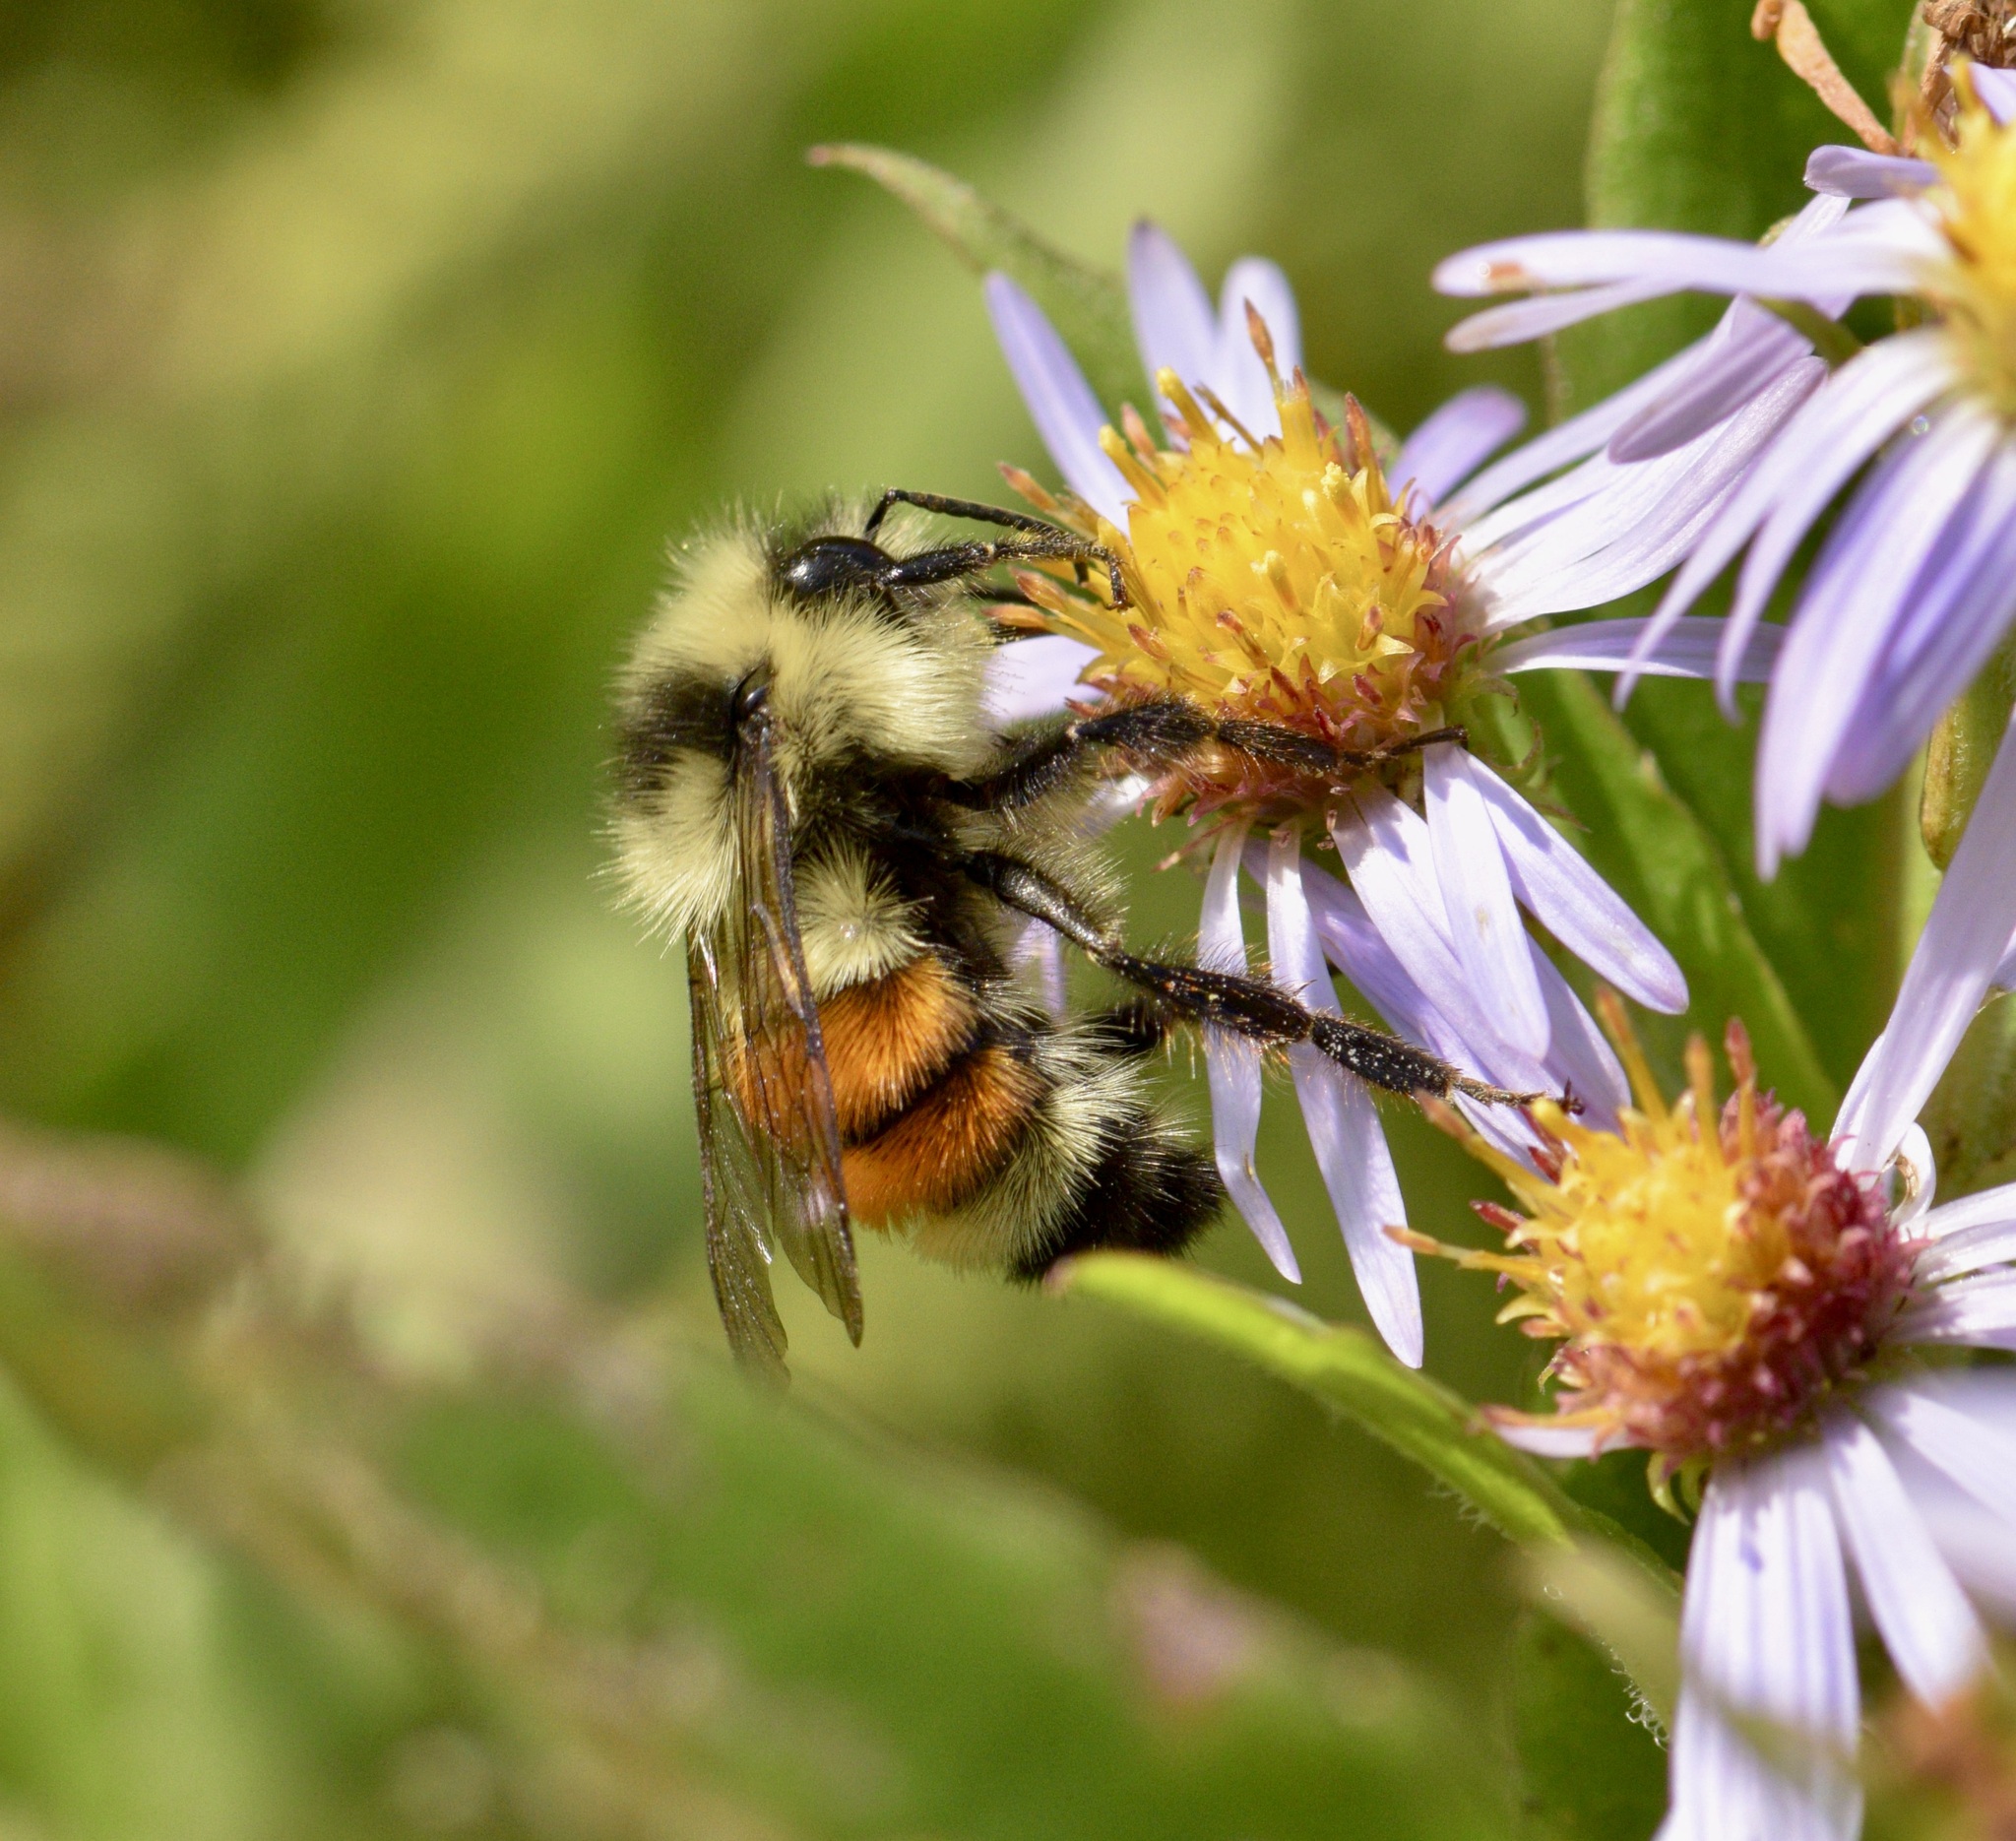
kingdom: Animalia
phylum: Arthropoda
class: Insecta
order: Hymenoptera
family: Apidae
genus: Bombus
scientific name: Bombus ternarius
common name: Tri-colored bumble bee
